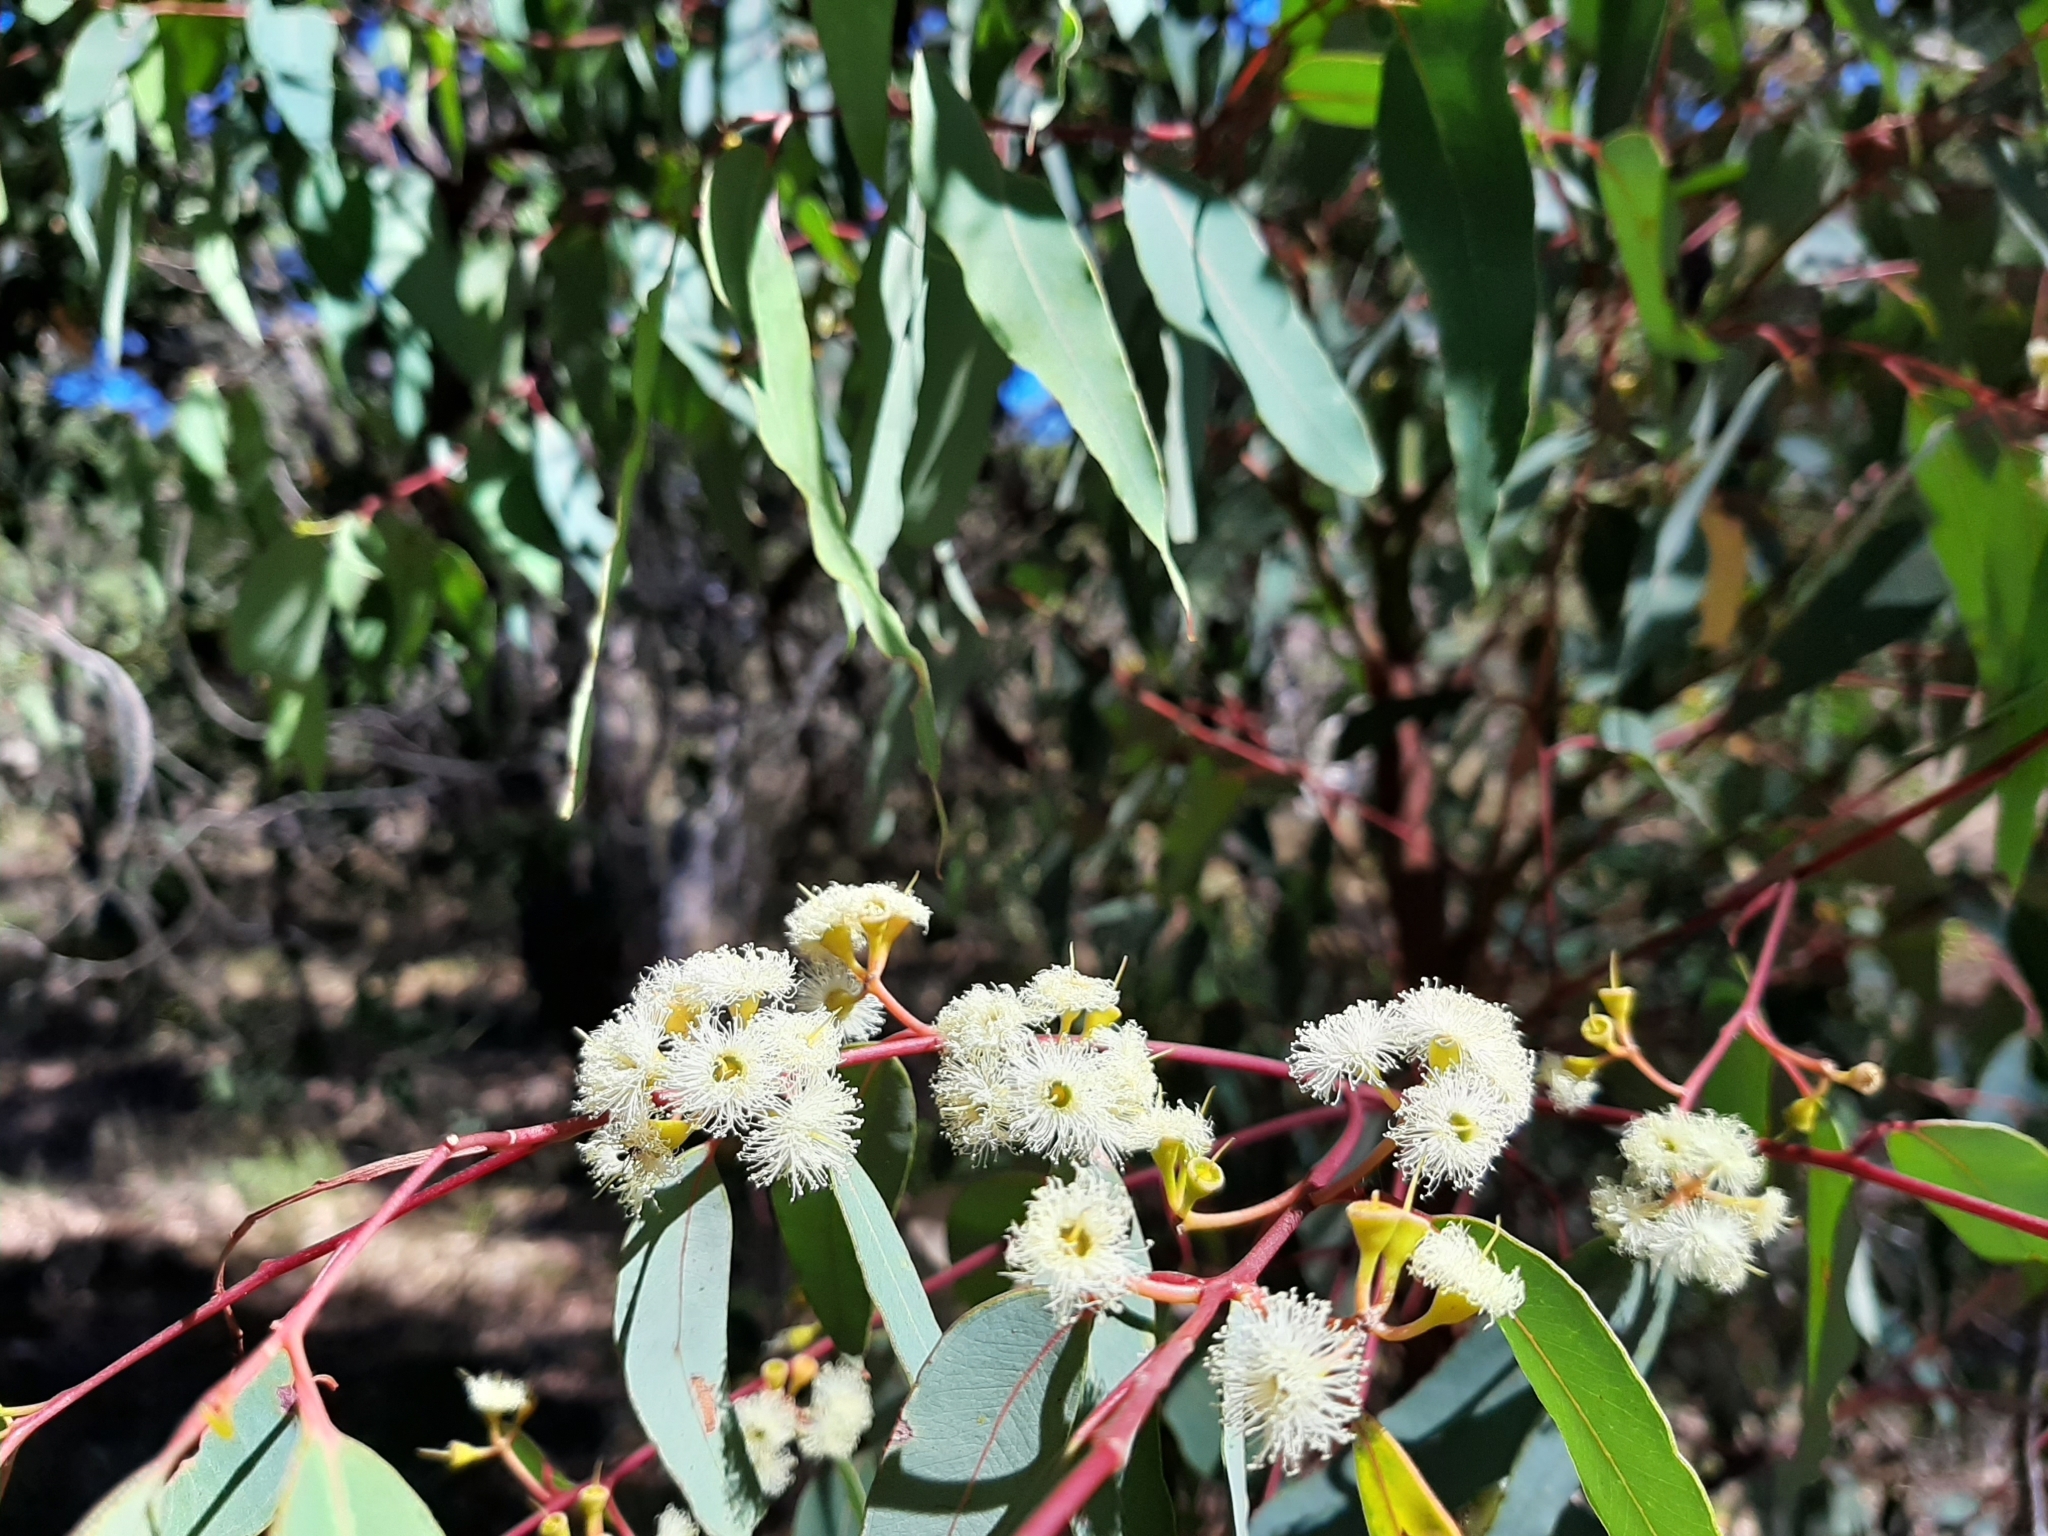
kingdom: Plantae
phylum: Tracheophyta
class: Magnoliopsida
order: Myrtales
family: Myrtaceae
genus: Eucalyptus
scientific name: Eucalyptus marginata
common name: Jarrah
